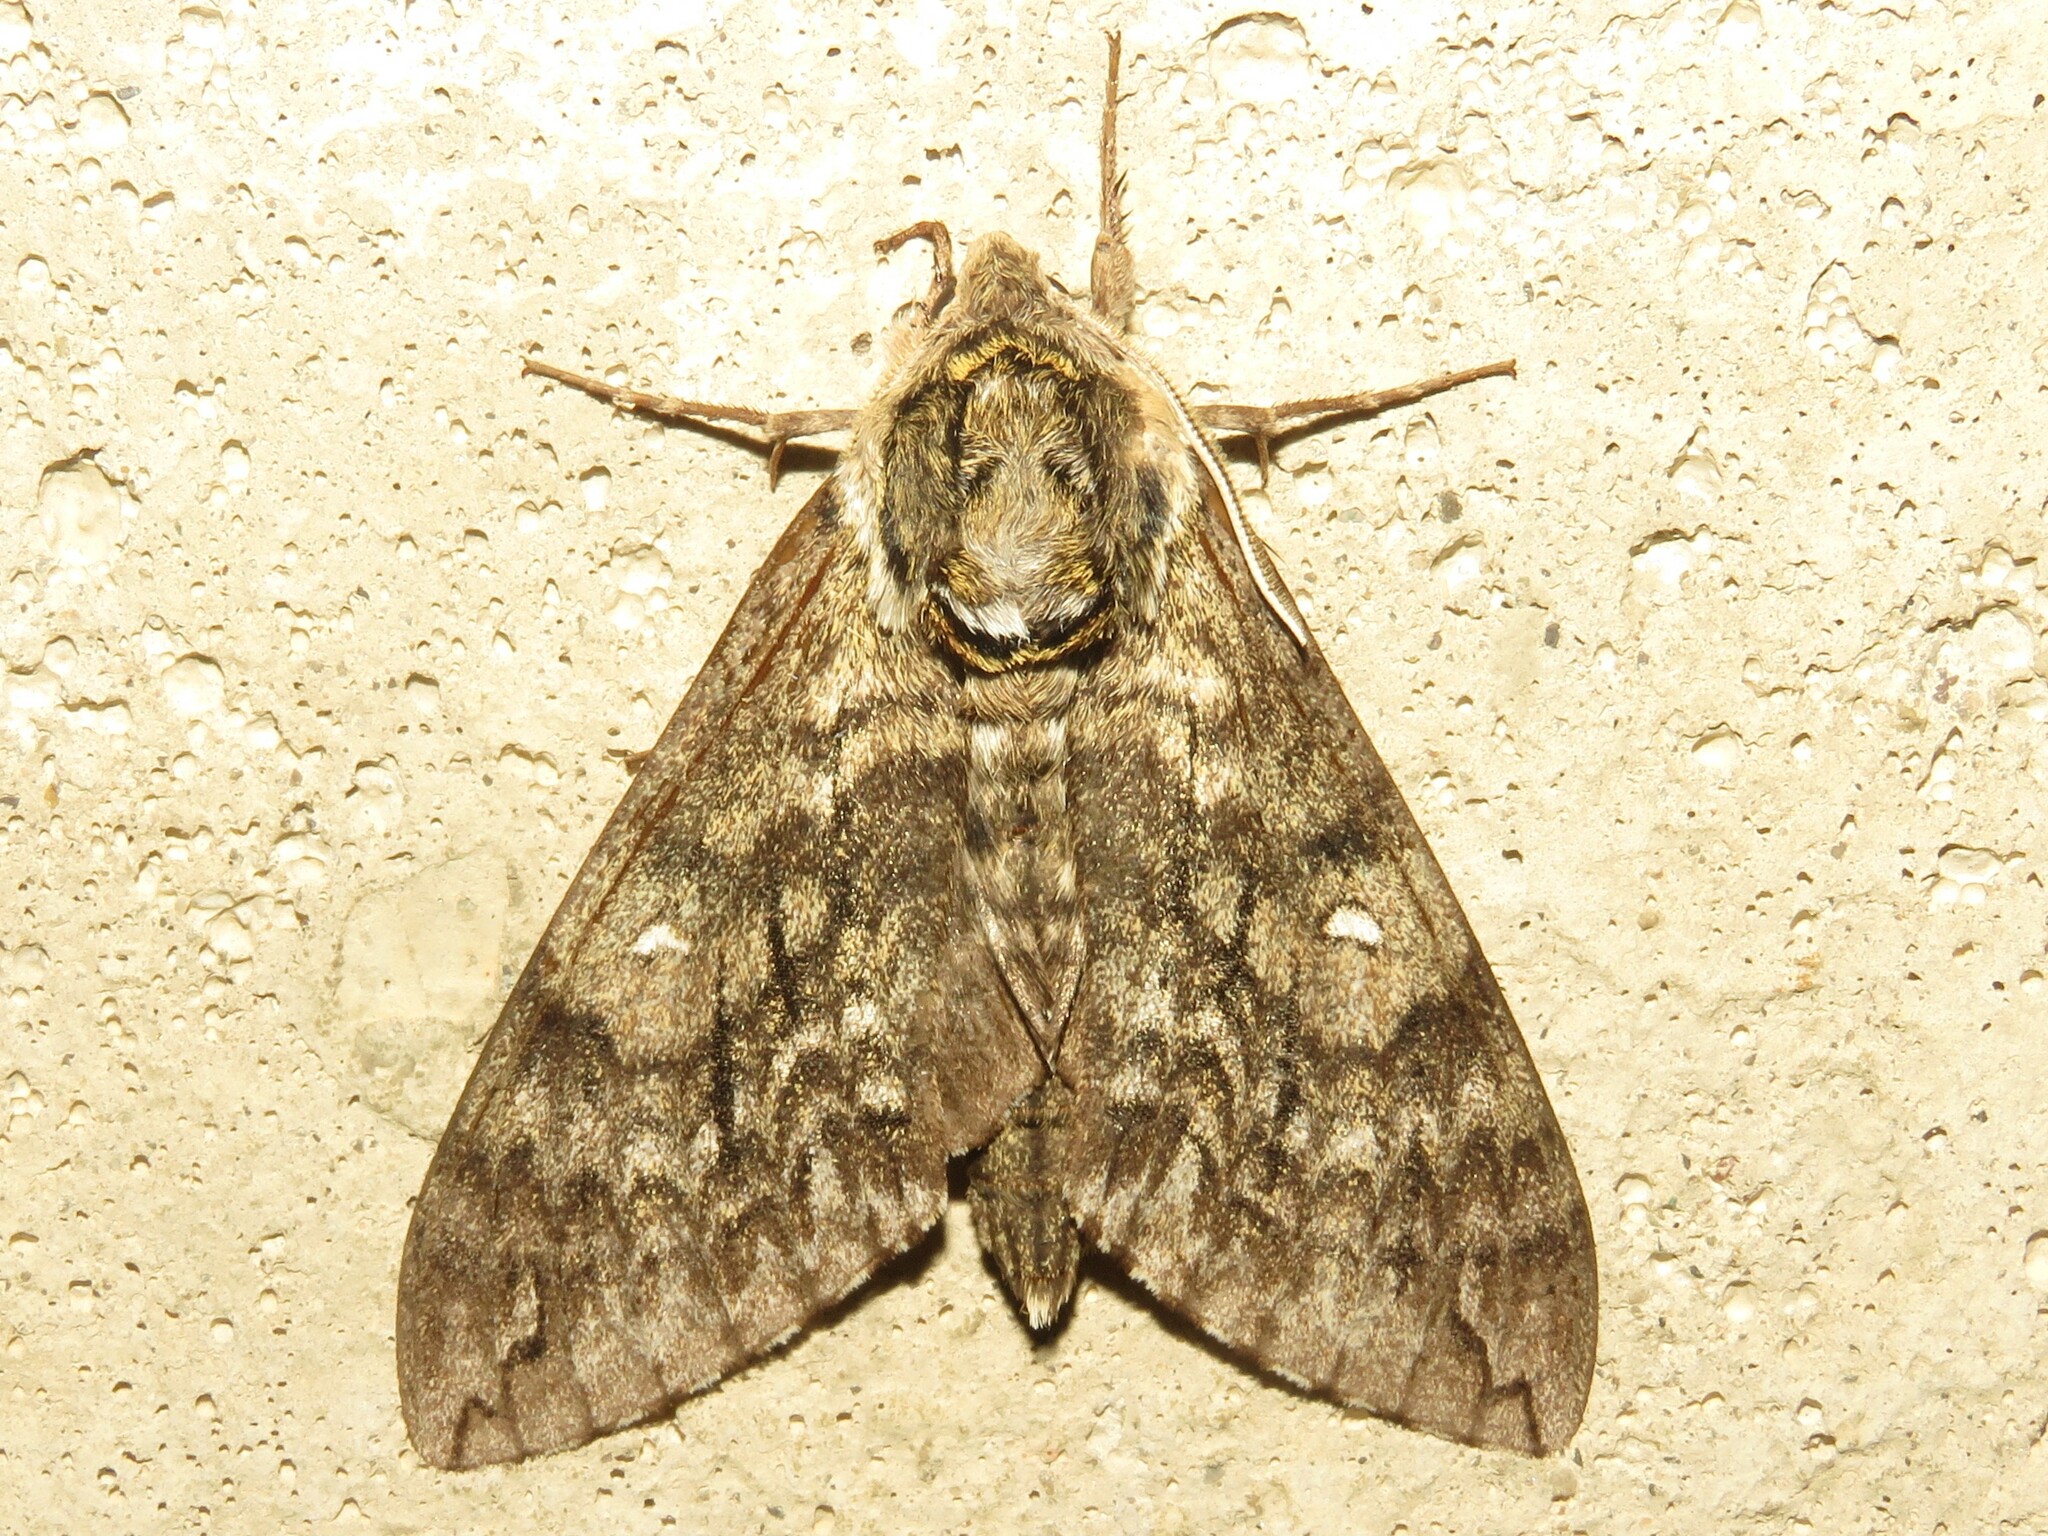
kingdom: Animalia
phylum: Arthropoda
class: Insecta
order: Lepidoptera
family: Sphingidae
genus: Ceratomia
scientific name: Ceratomia undulosa
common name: Waved sphinx
